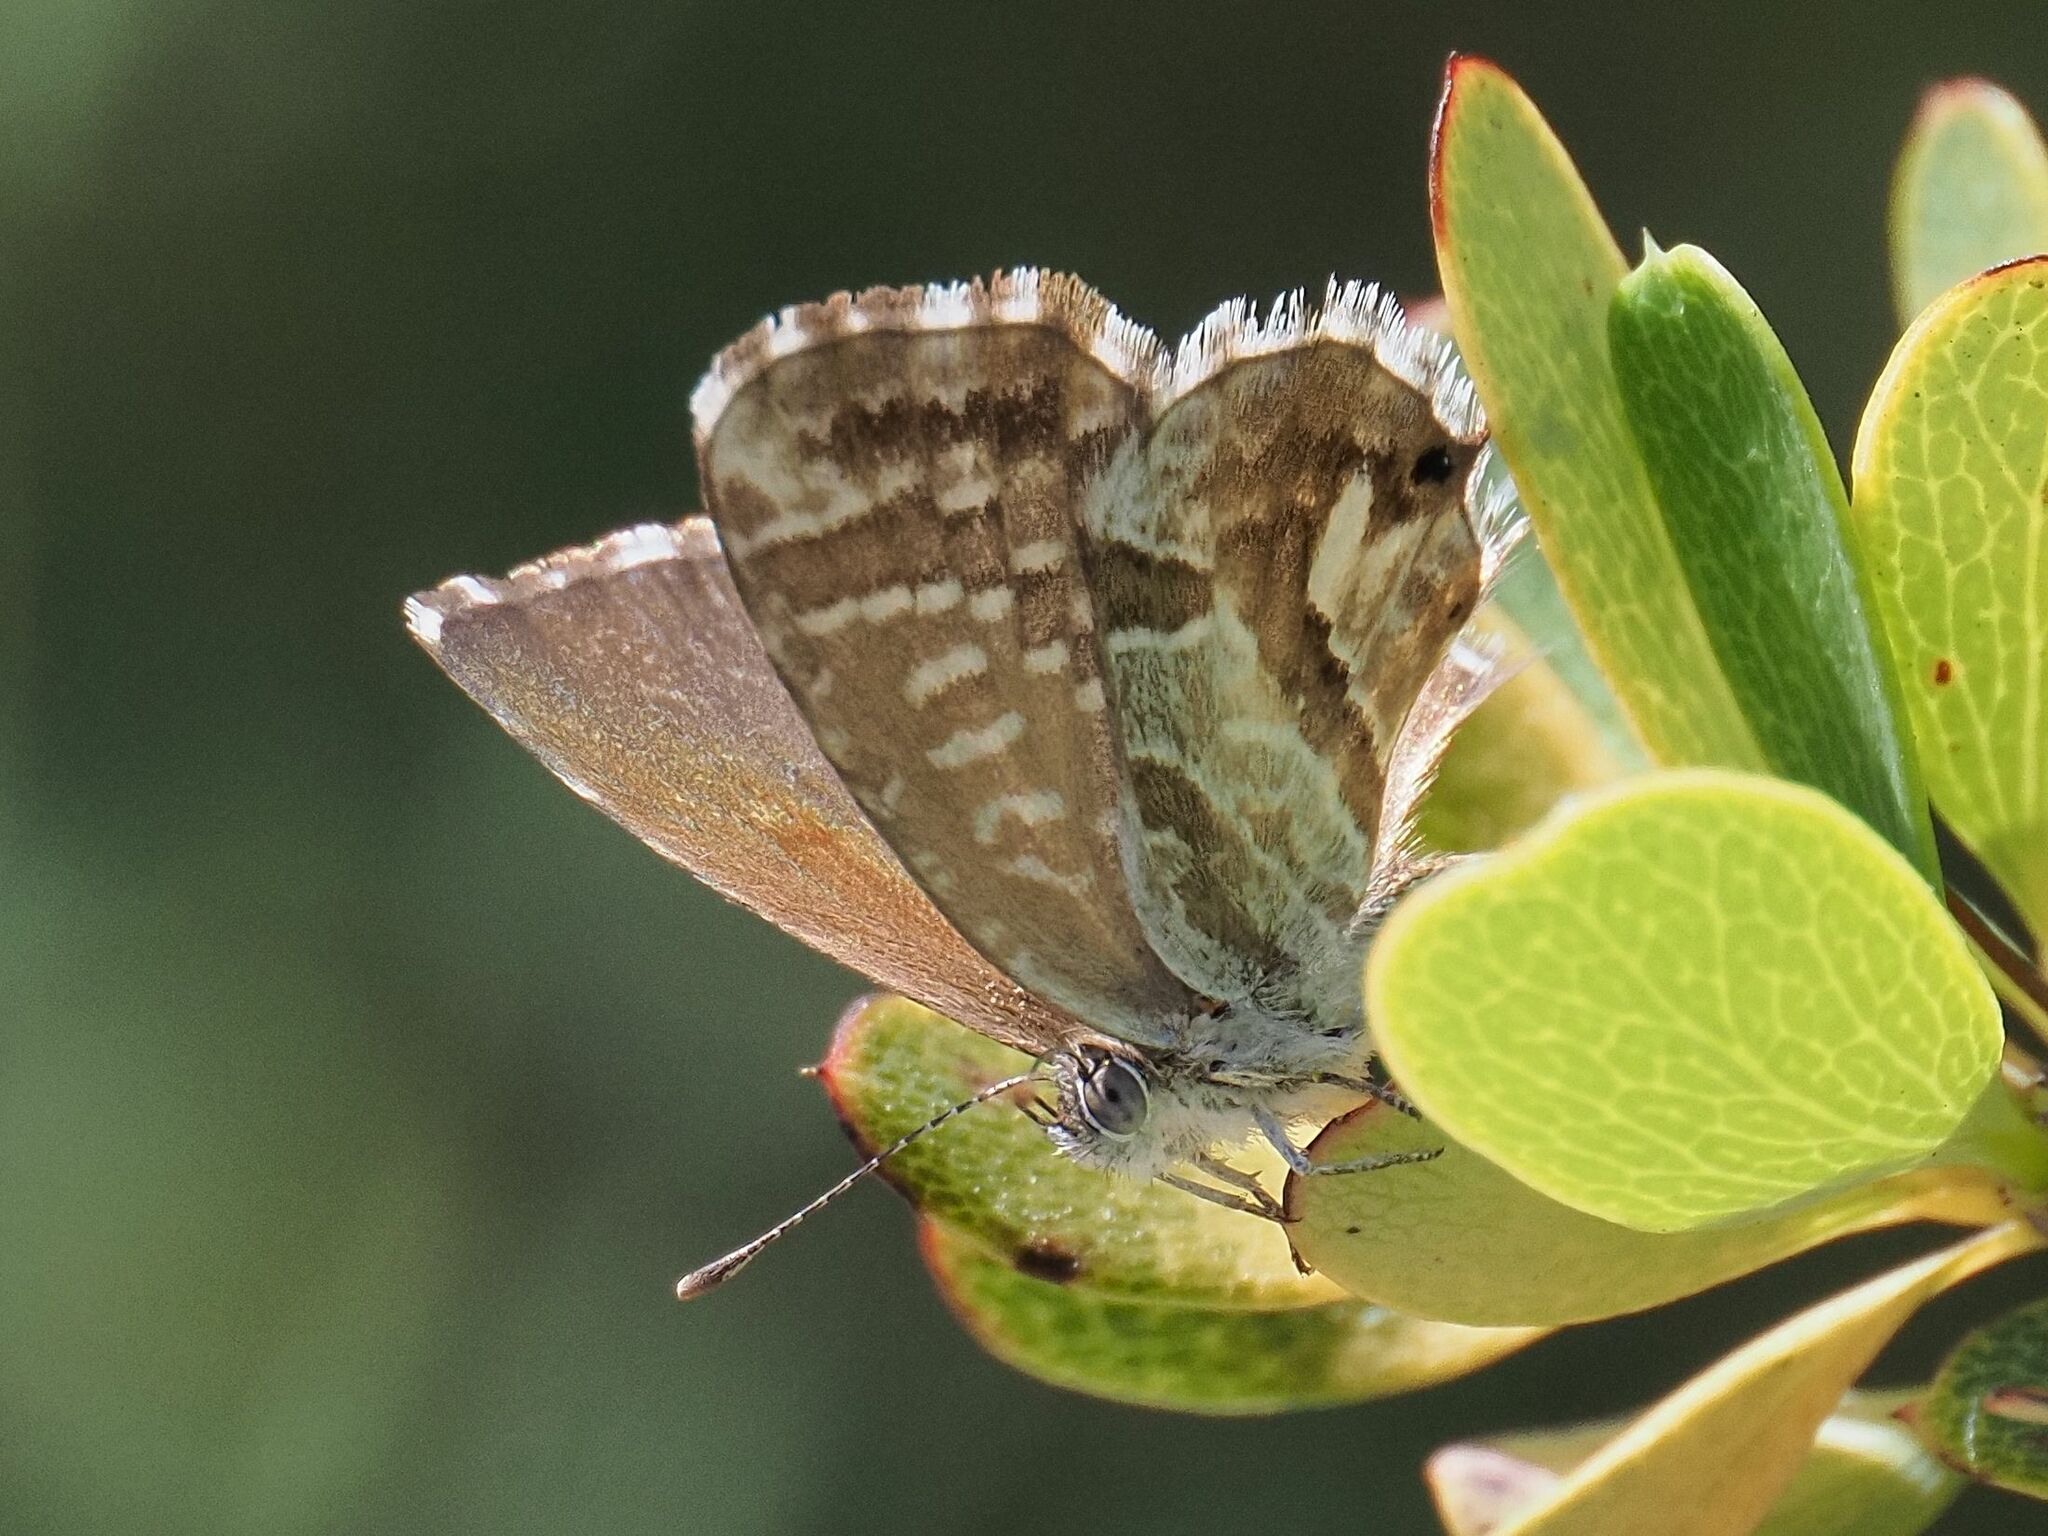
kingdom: Animalia
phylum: Arthropoda
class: Insecta
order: Lepidoptera
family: Lycaenidae
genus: Cacyreus
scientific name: Cacyreus marshalli
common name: Geranium bronze
